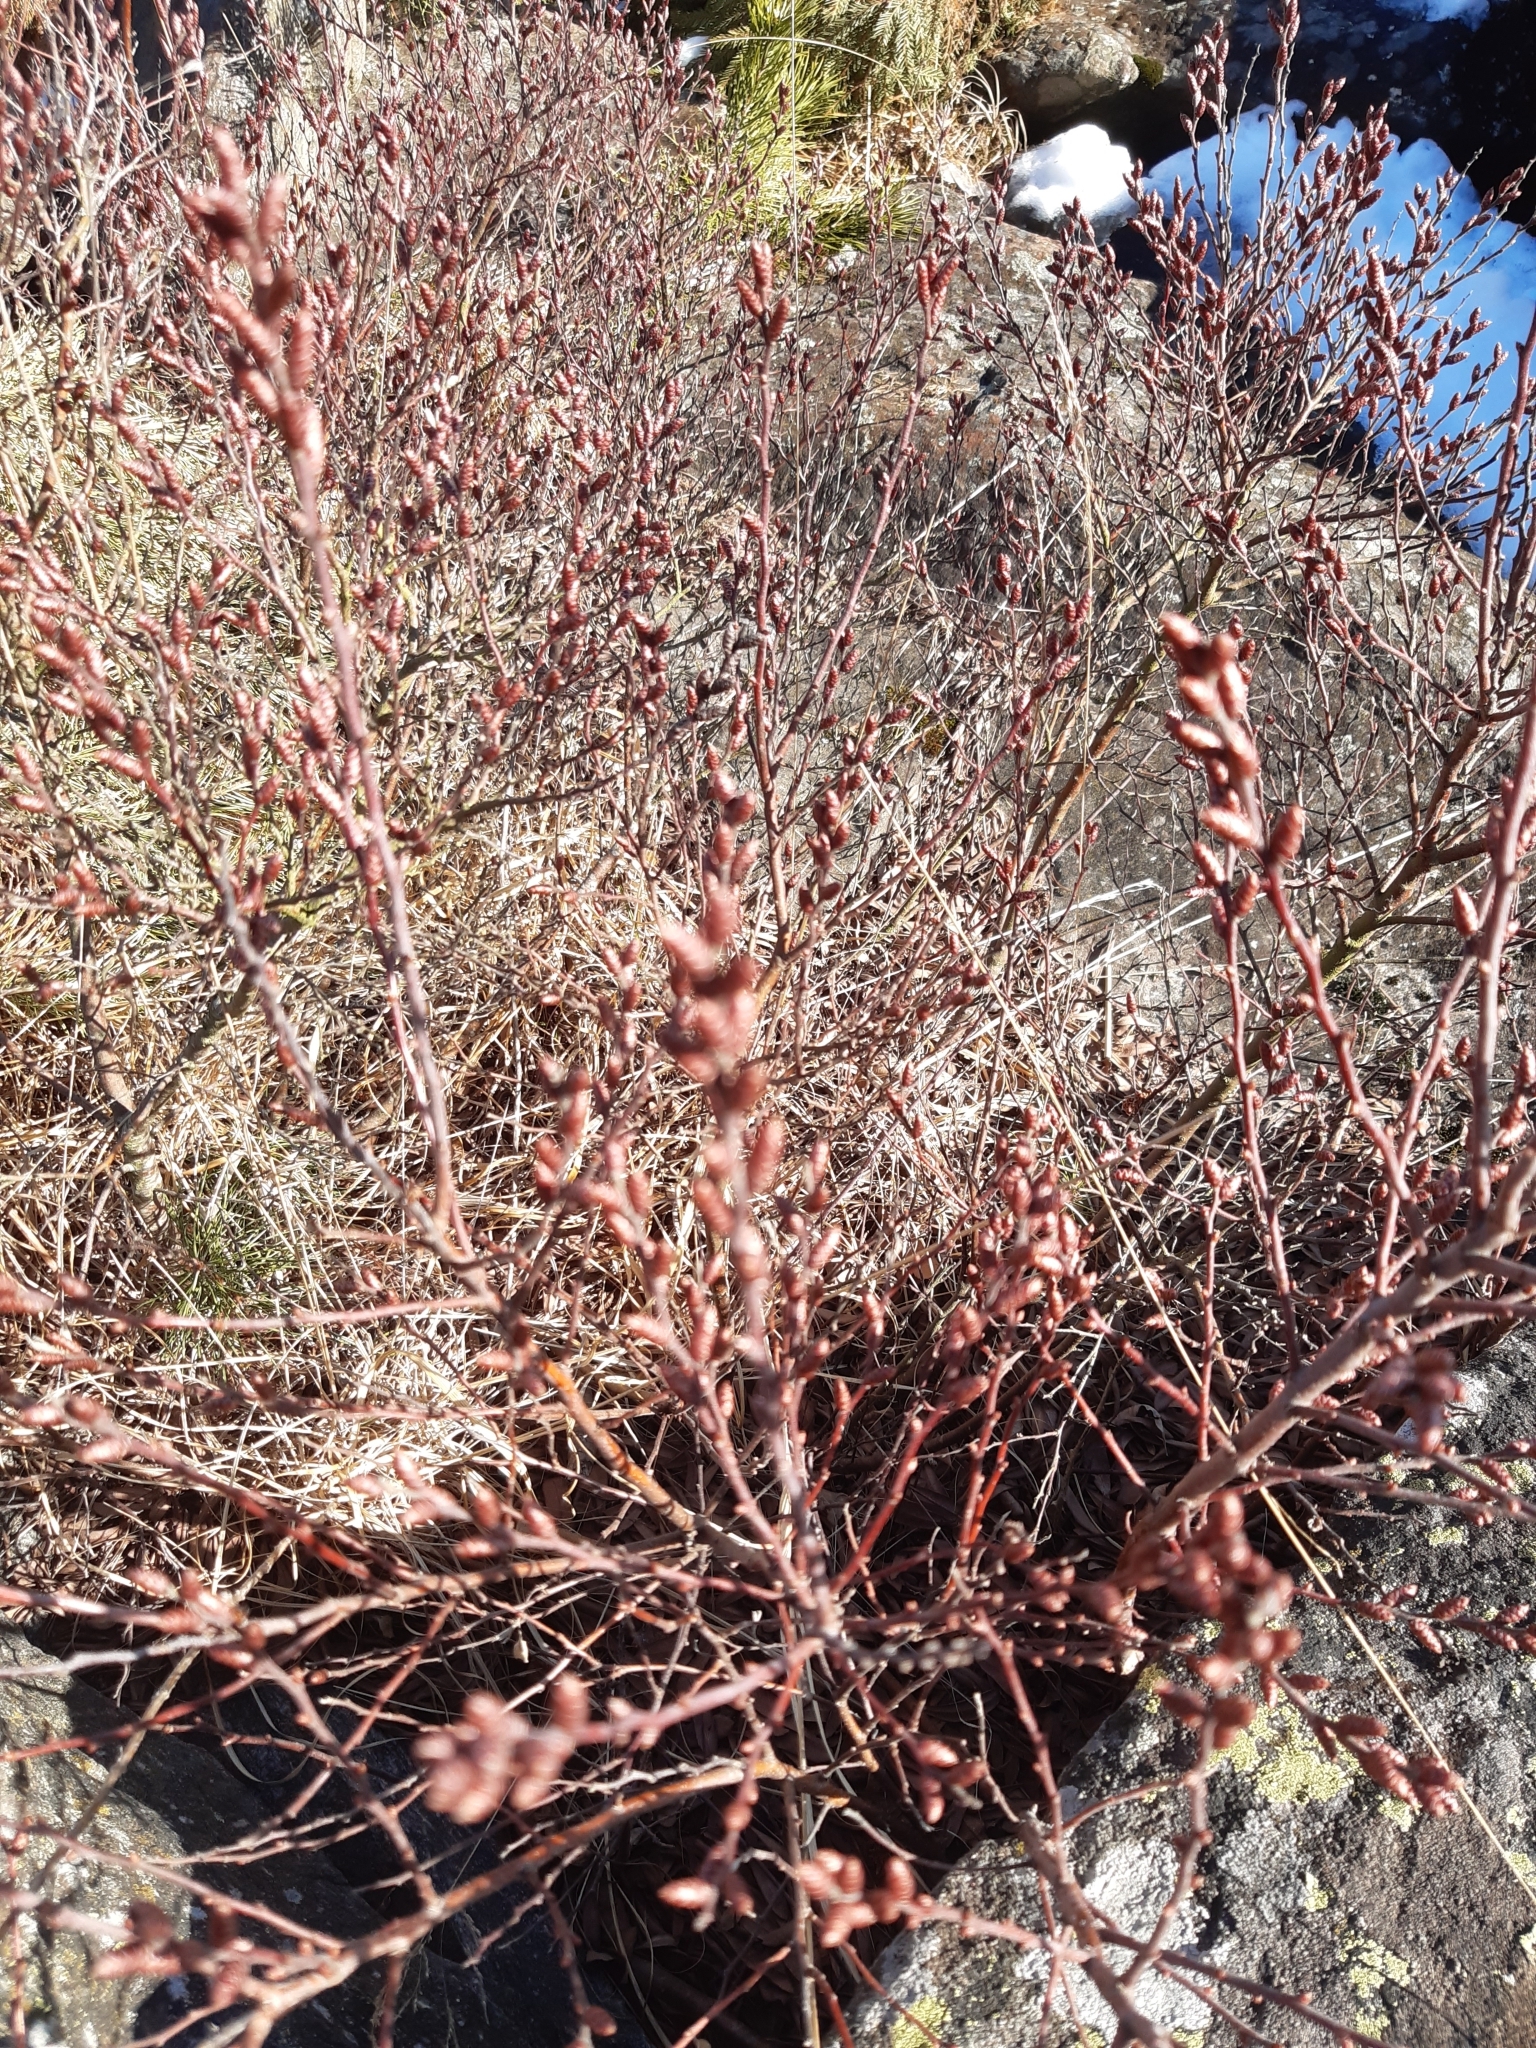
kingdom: Plantae
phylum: Tracheophyta
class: Magnoliopsida
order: Fagales
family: Myricaceae
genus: Myrica
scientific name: Myrica gale
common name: Sweet gale
